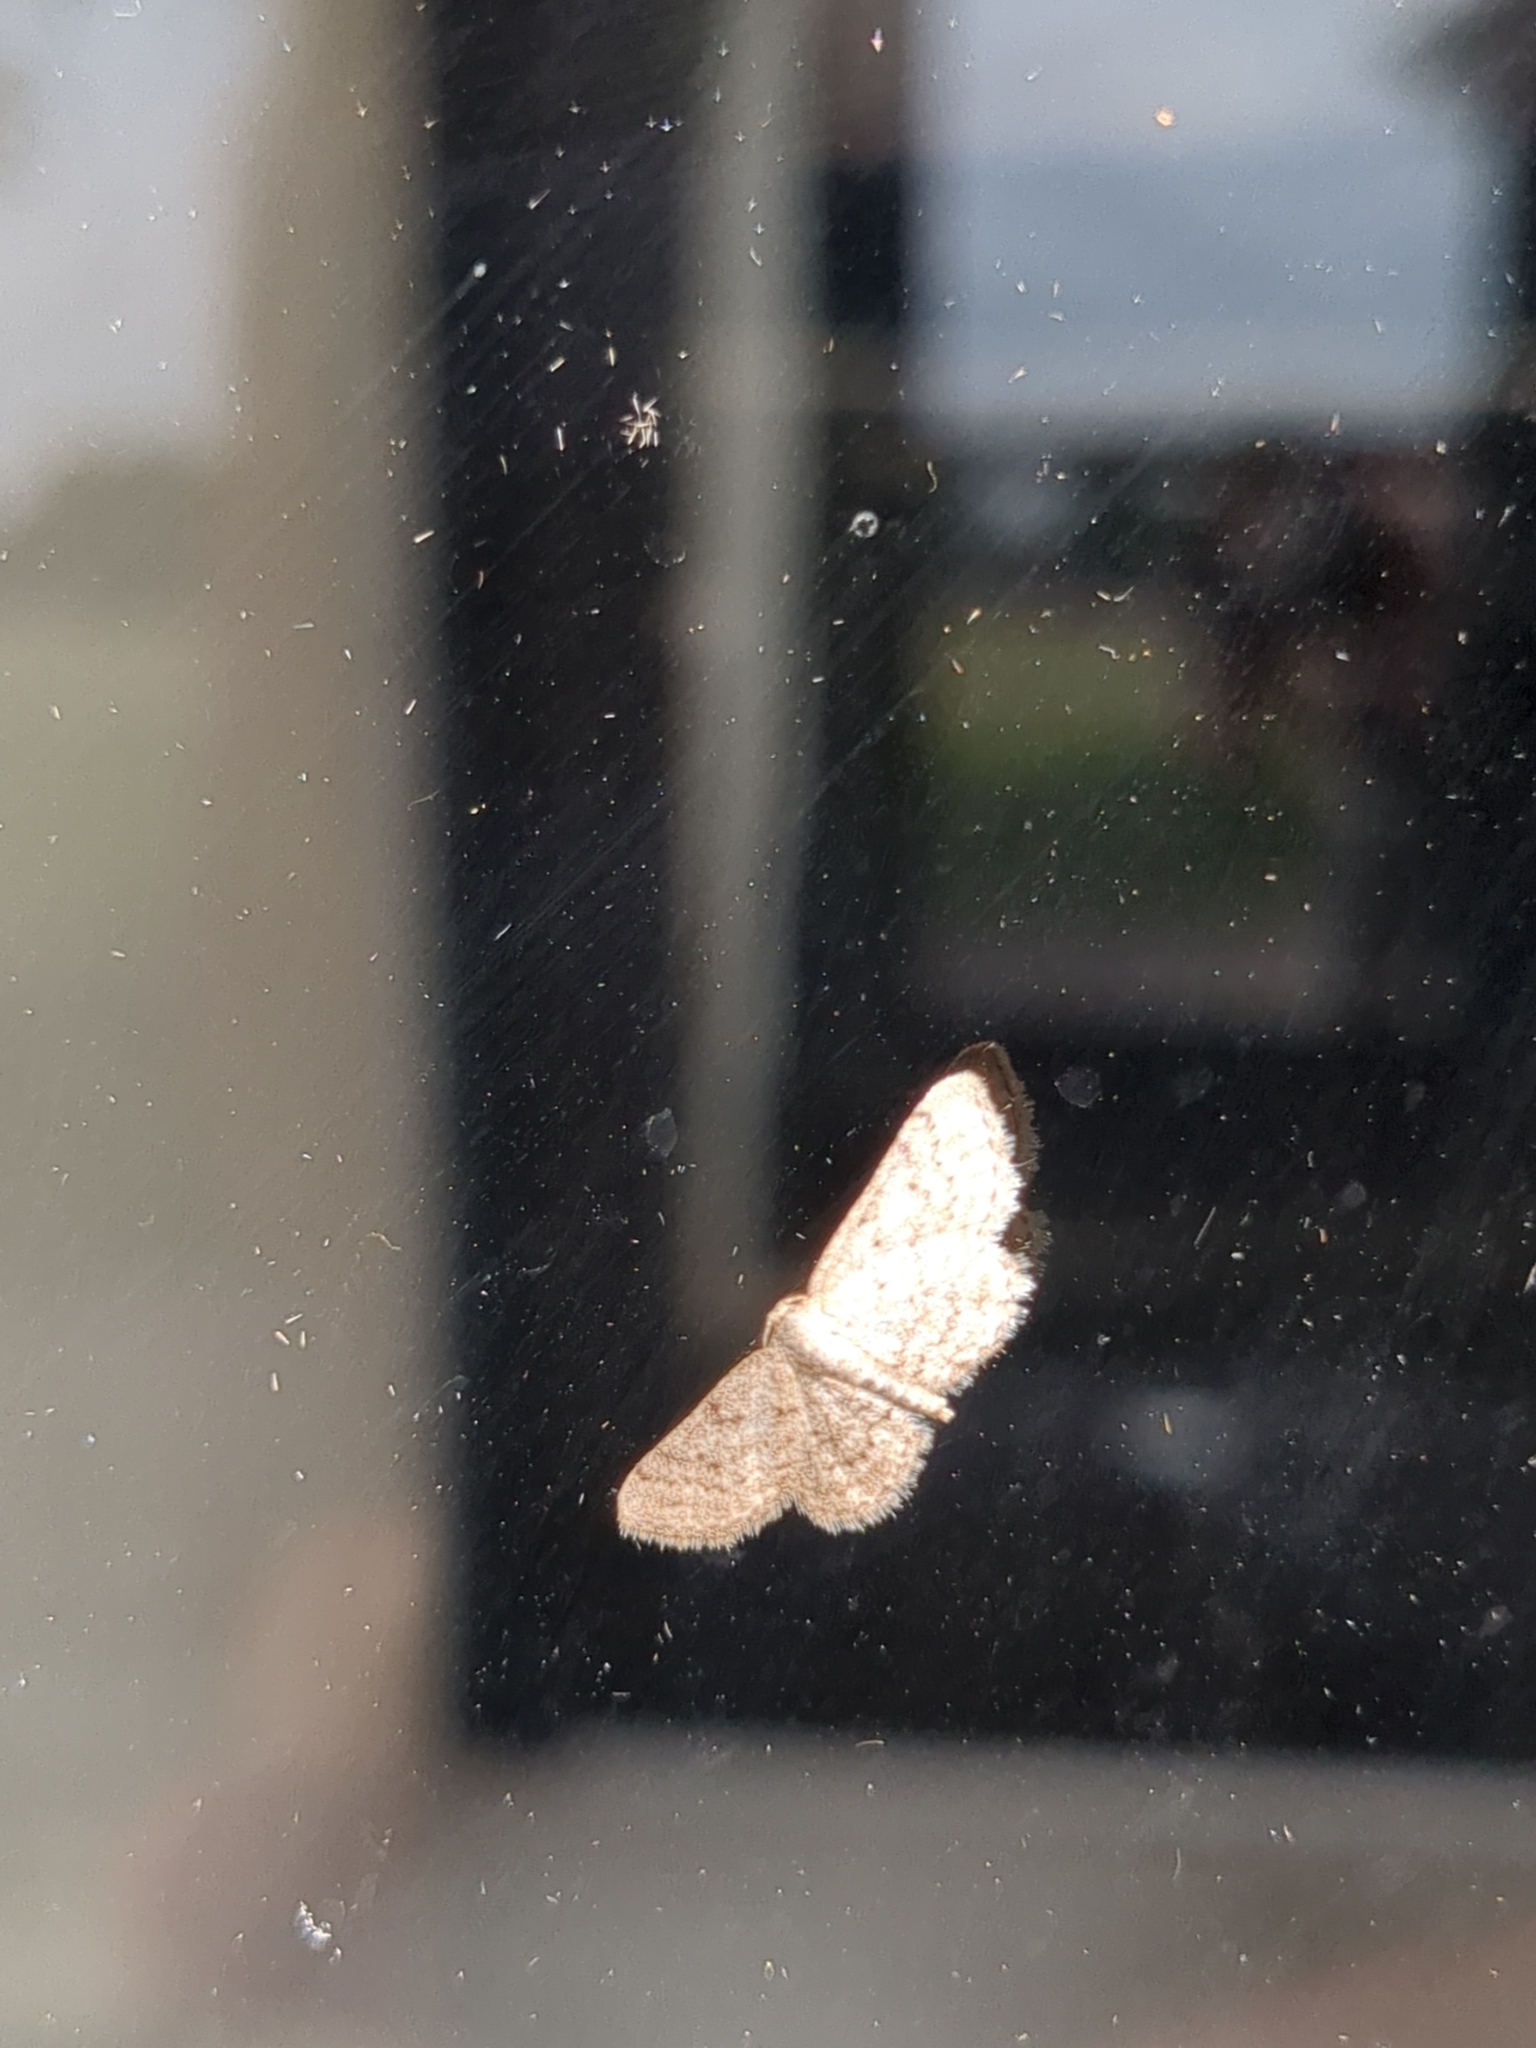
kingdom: Animalia
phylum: Arthropoda
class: Insecta
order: Lepidoptera
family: Geometridae
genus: Pleuroprucha
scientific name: Pleuroprucha insulsaria
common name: Common tan wave
